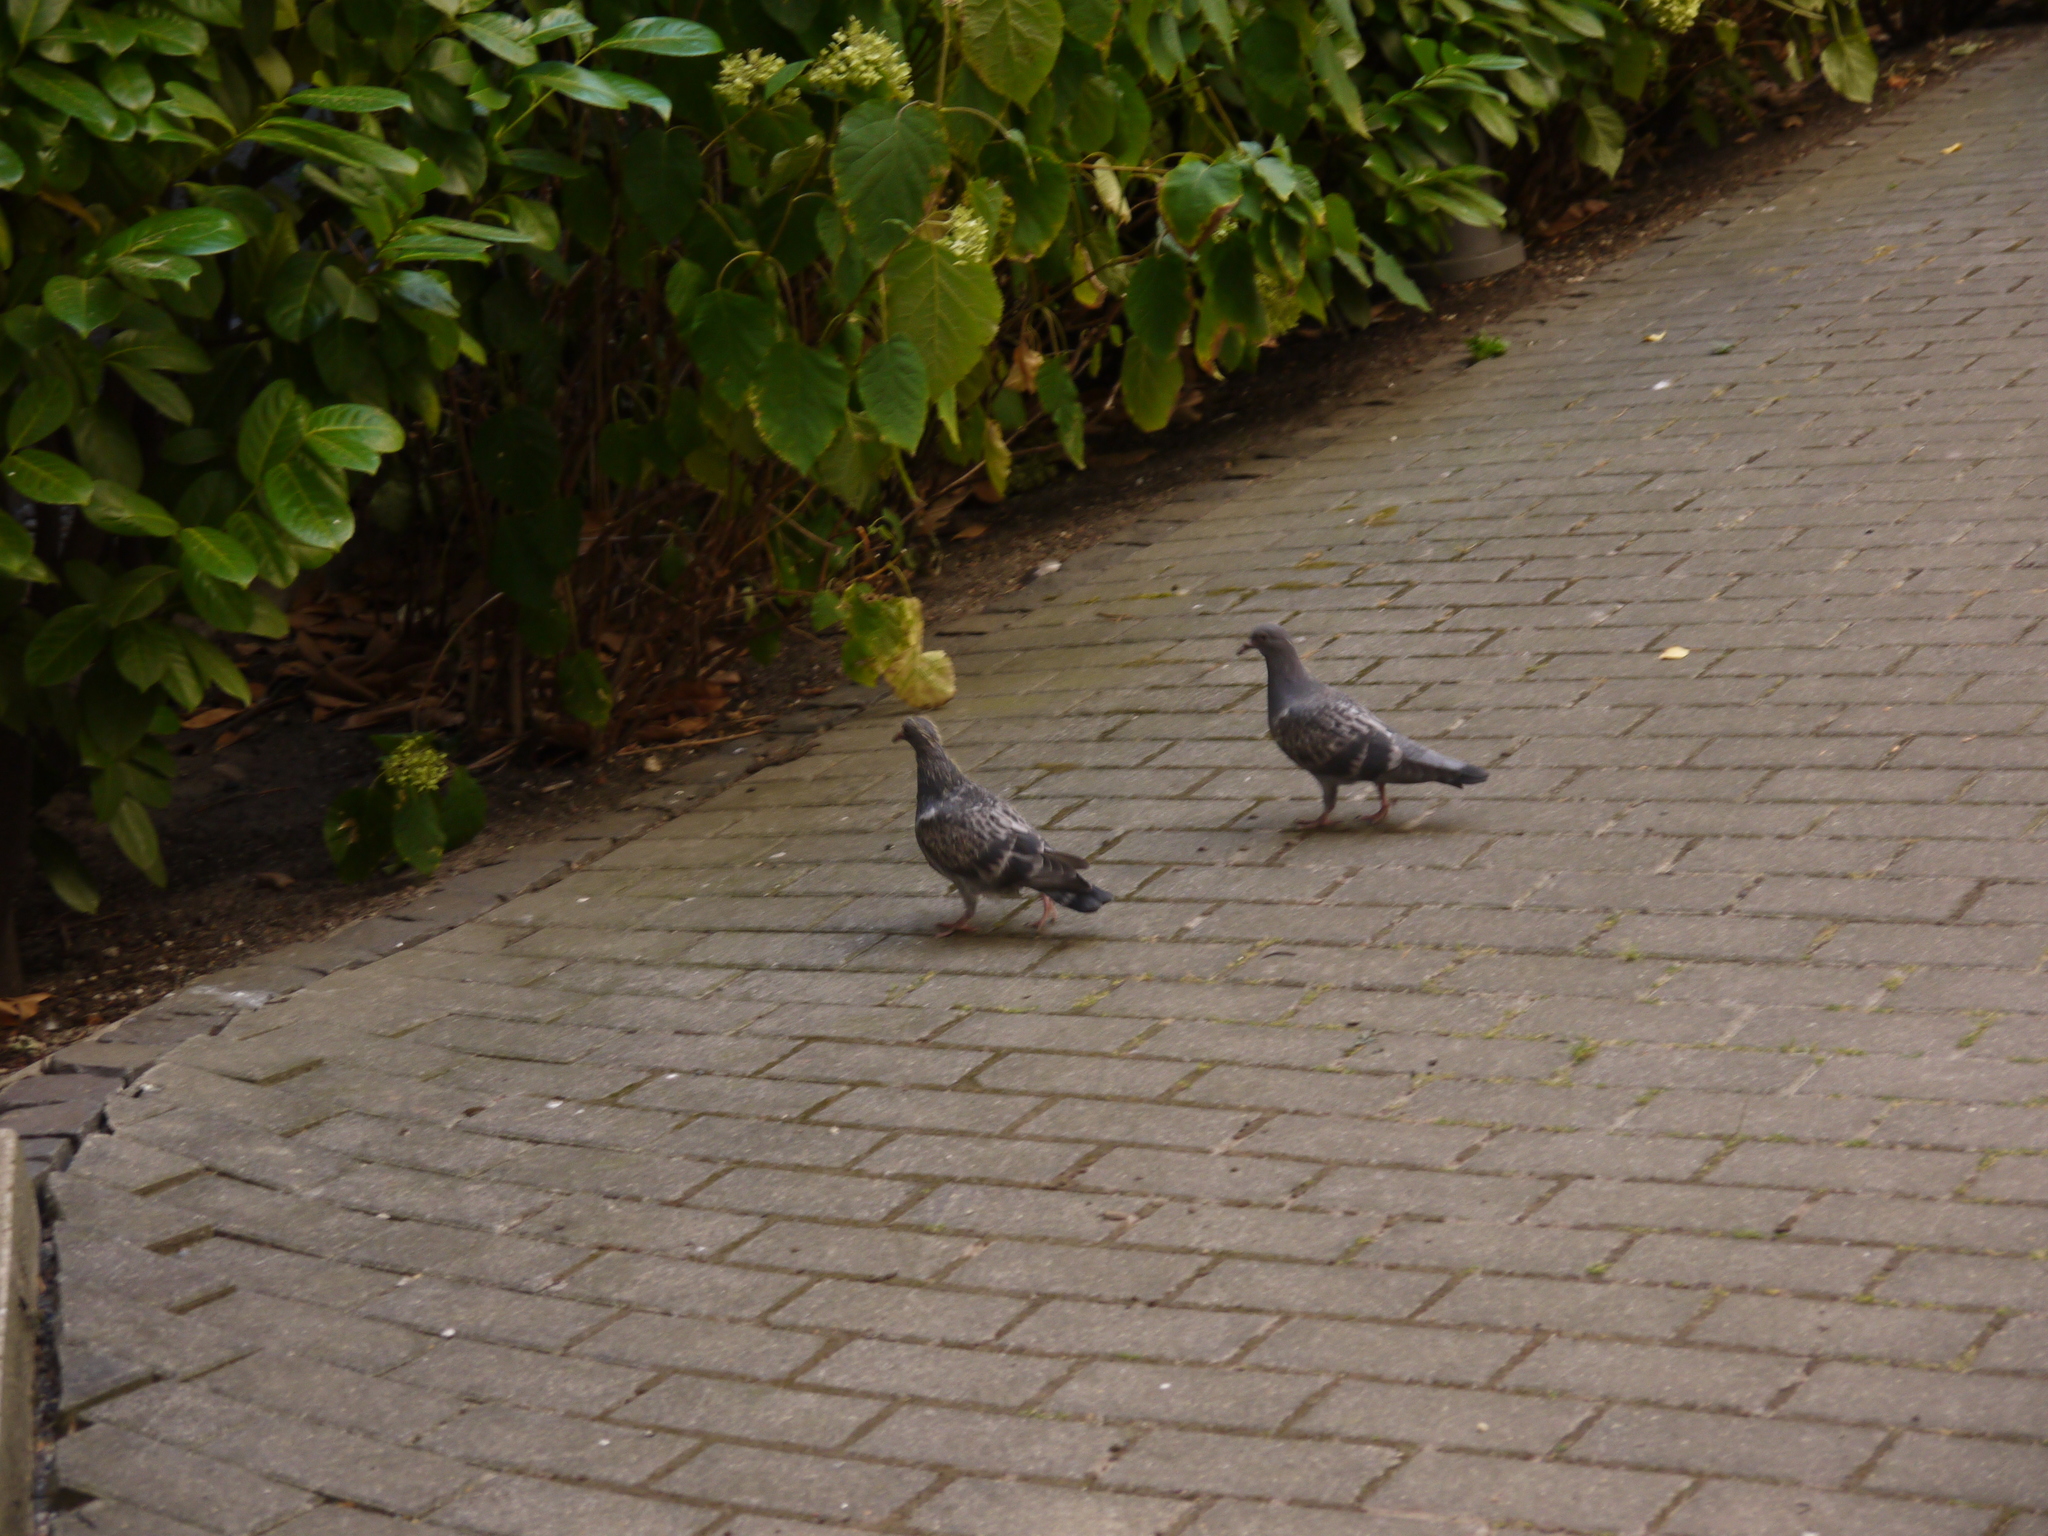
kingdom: Animalia
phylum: Chordata
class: Aves
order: Columbiformes
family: Columbidae
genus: Columba
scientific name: Columba livia
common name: Rock pigeon
